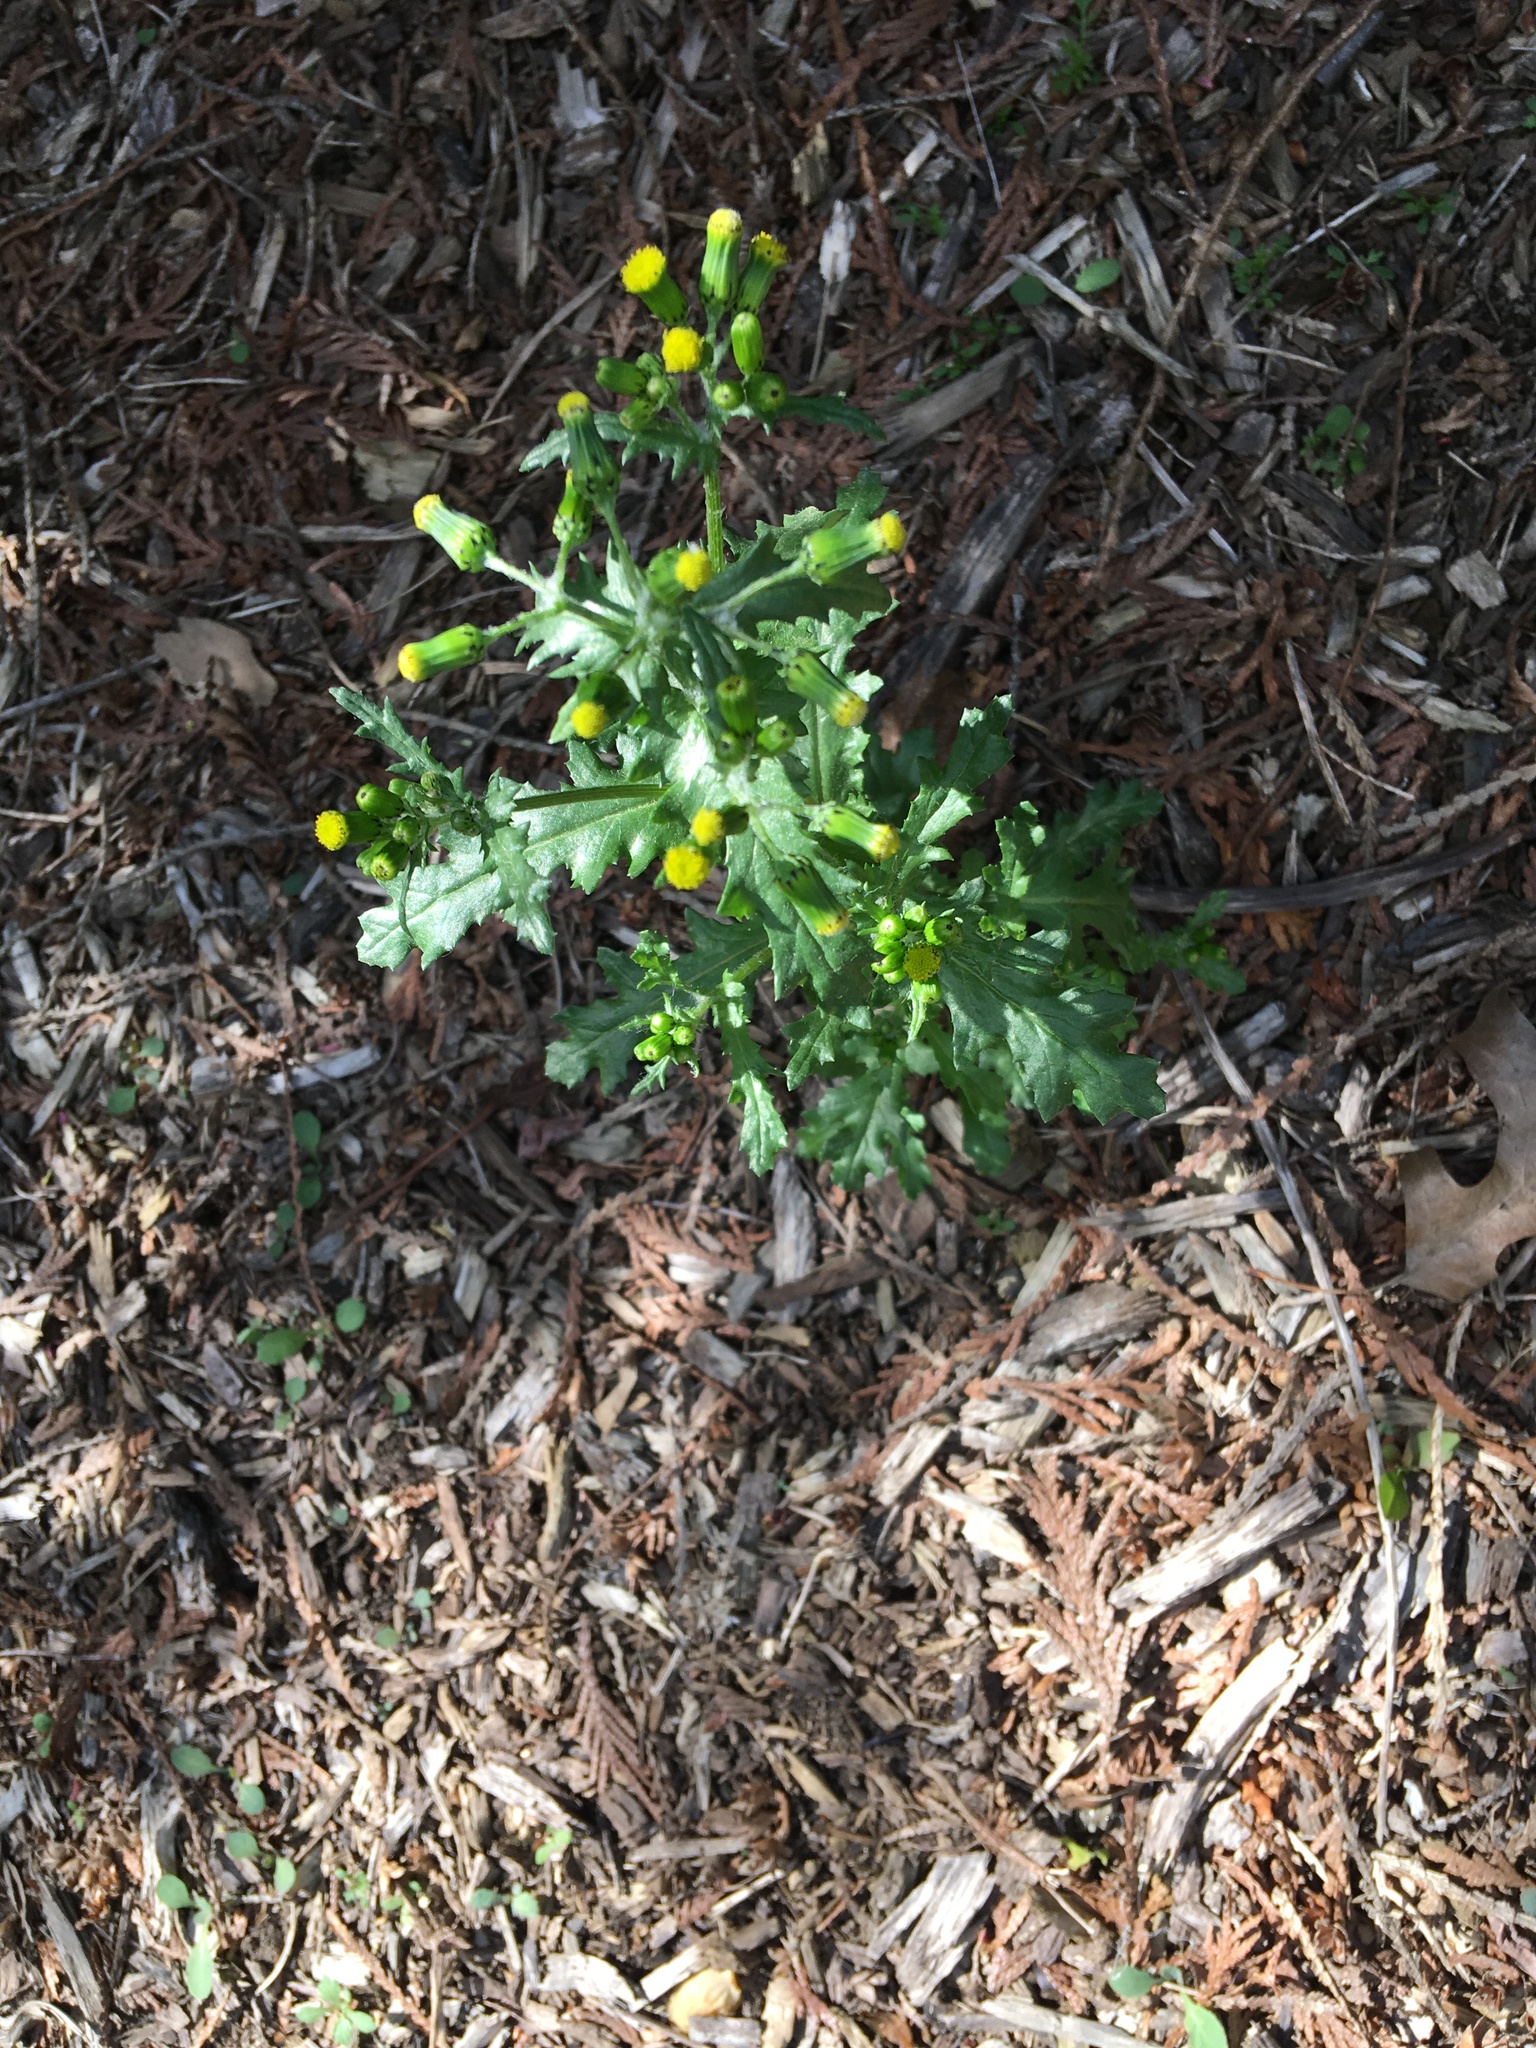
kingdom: Plantae
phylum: Tracheophyta
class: Magnoliopsida
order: Asterales
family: Asteraceae
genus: Senecio
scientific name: Senecio vulgaris
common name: Old-man-in-the-spring
